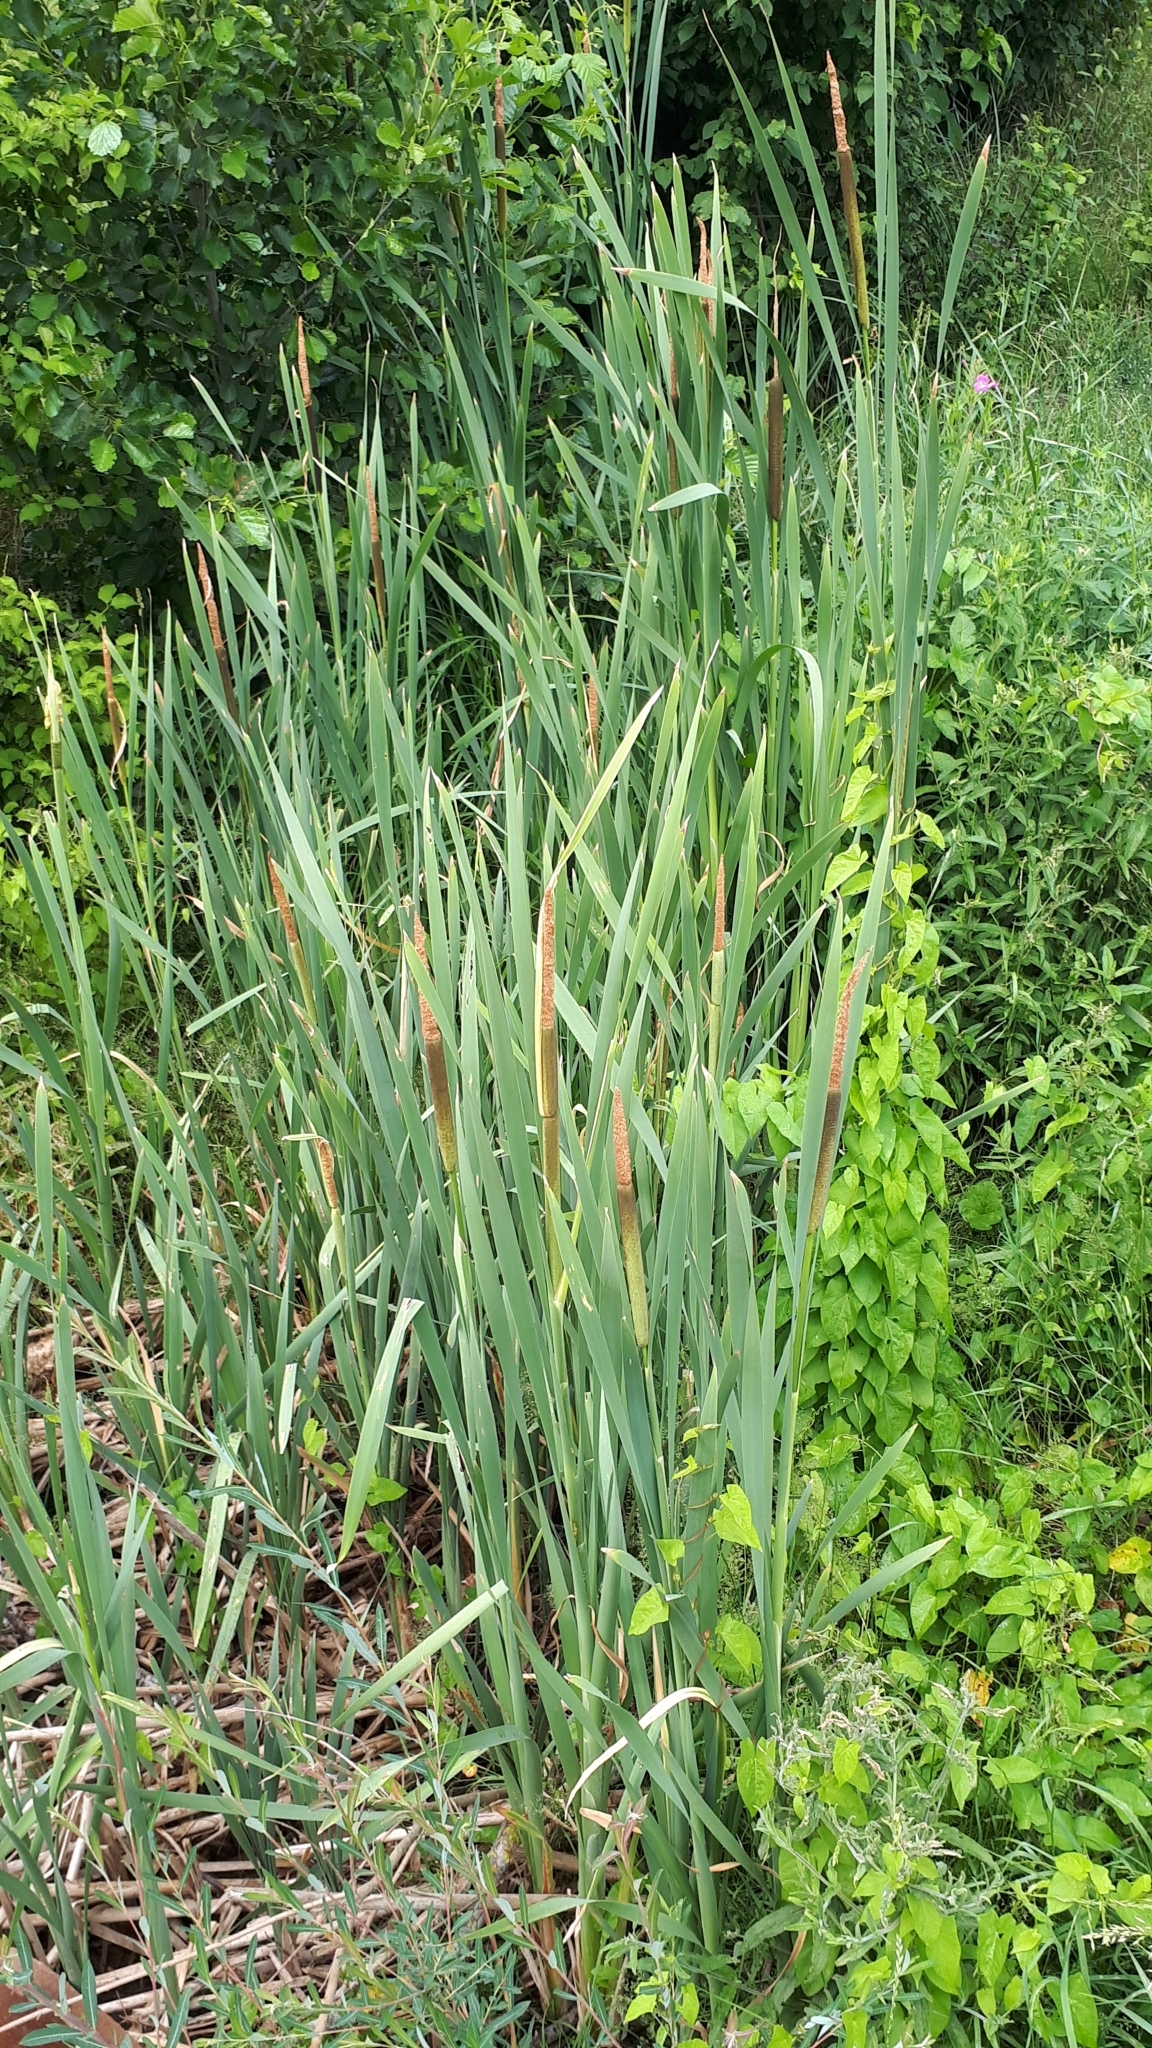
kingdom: Plantae
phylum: Tracheophyta
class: Liliopsida
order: Poales
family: Typhaceae
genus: Typha
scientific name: Typha latifolia
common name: Broadleaf cattail
